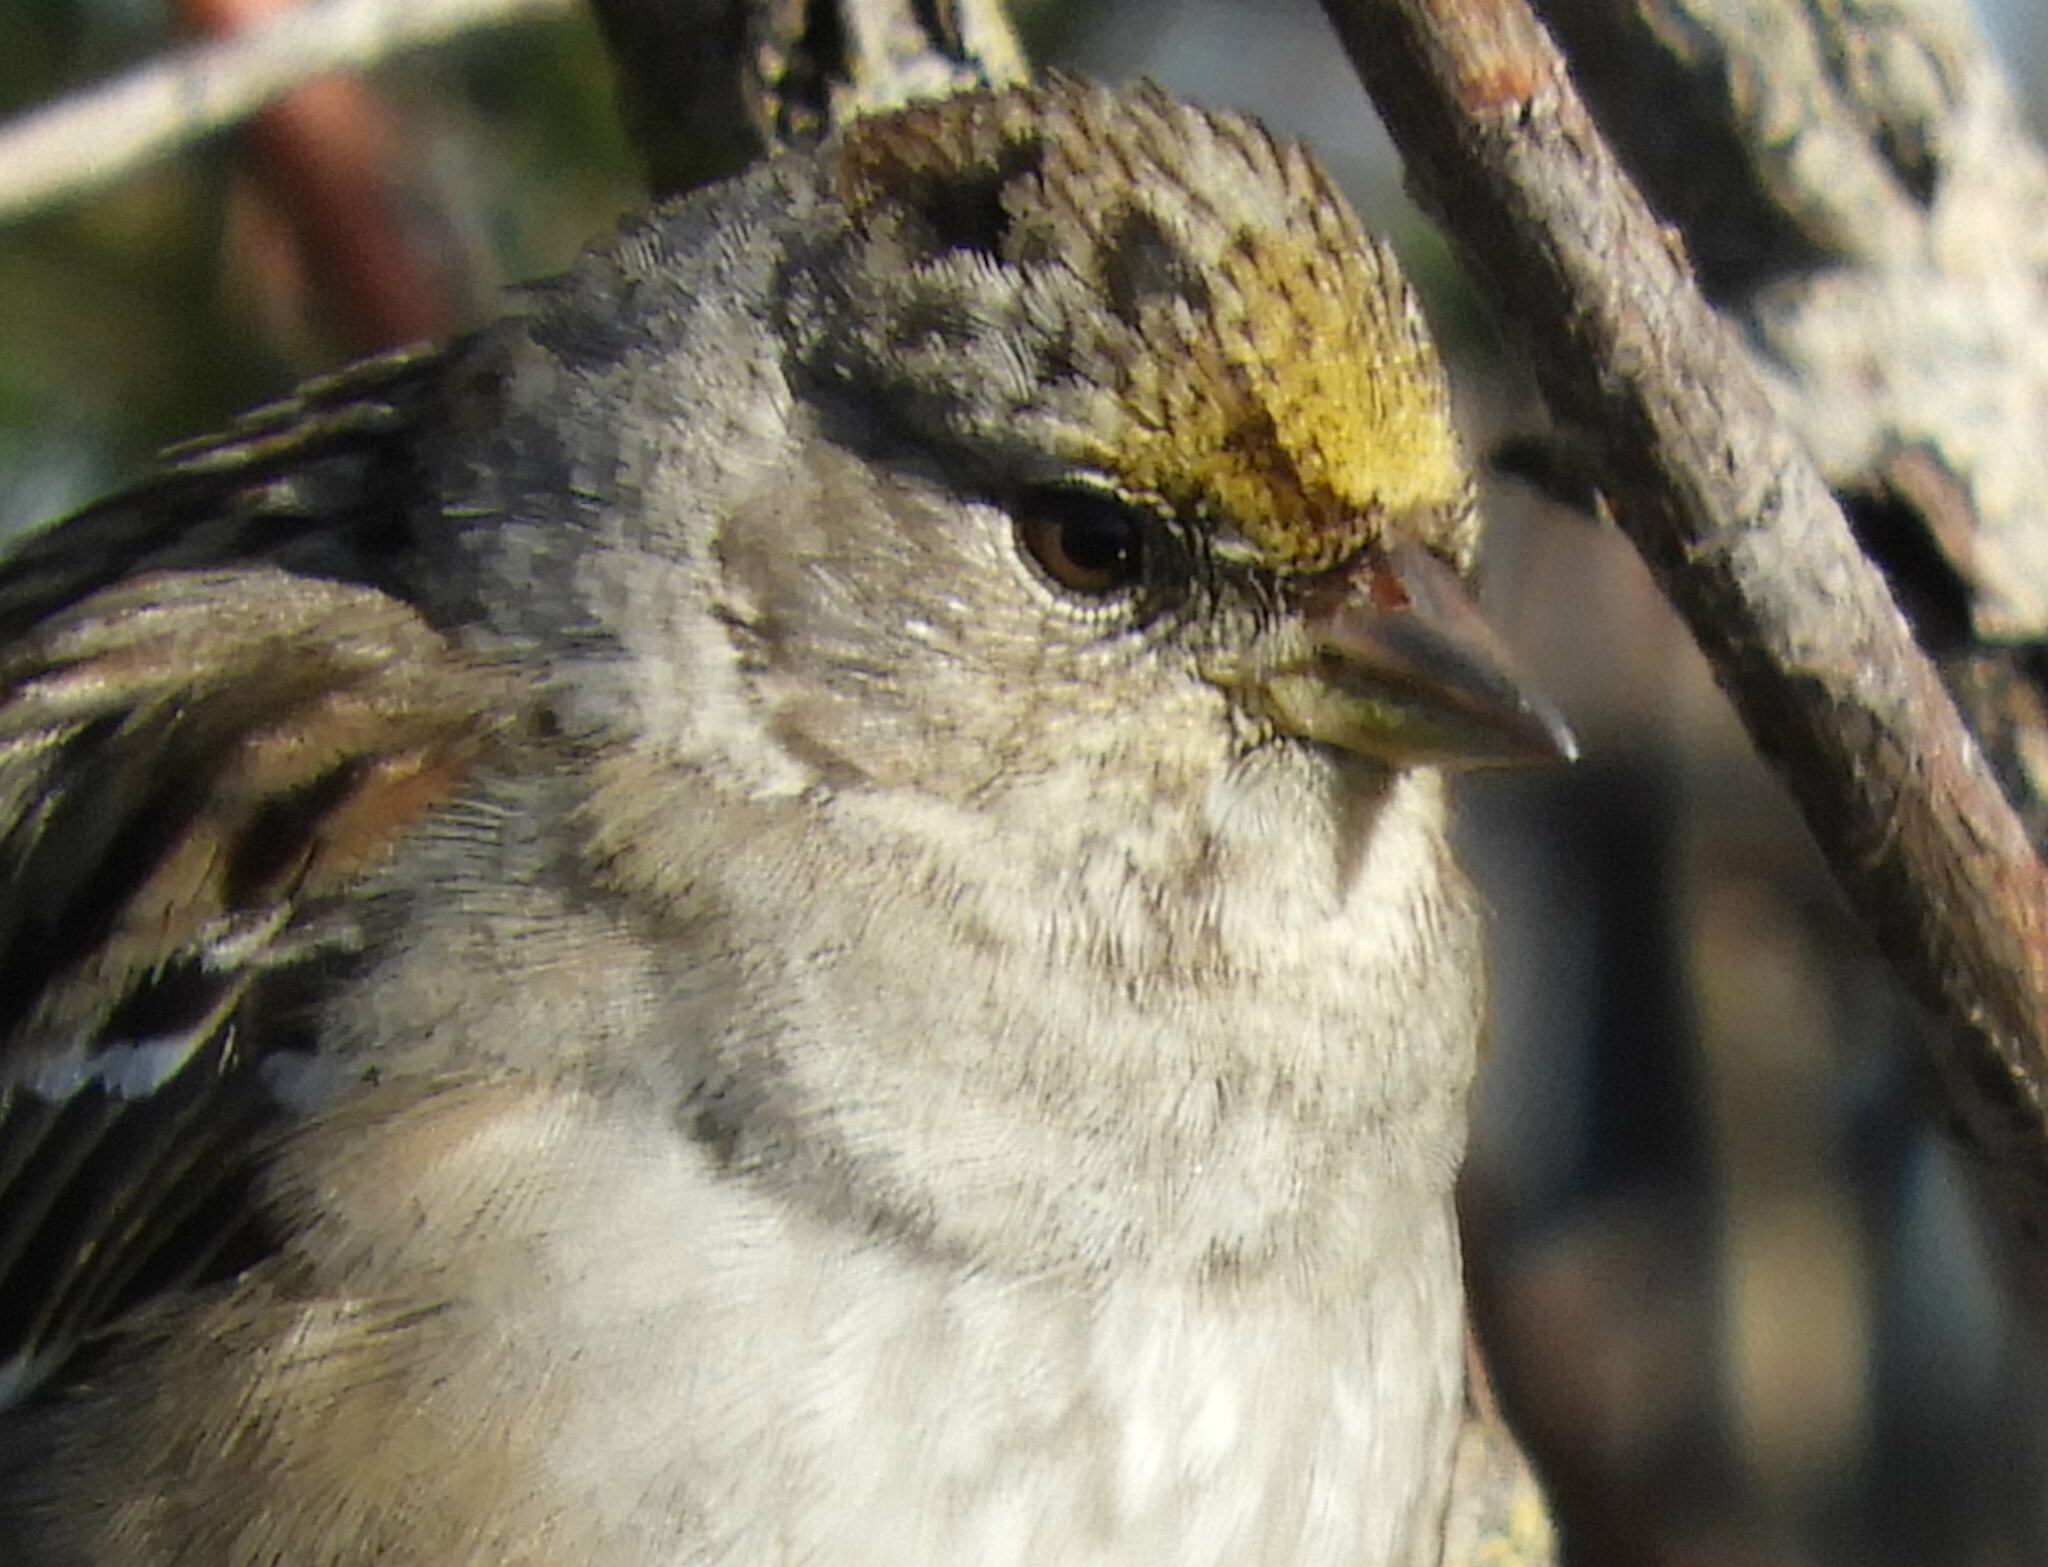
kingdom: Animalia
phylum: Chordata
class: Aves
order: Passeriformes
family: Passerellidae
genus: Zonotrichia
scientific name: Zonotrichia atricapilla
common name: Golden-crowned sparrow
